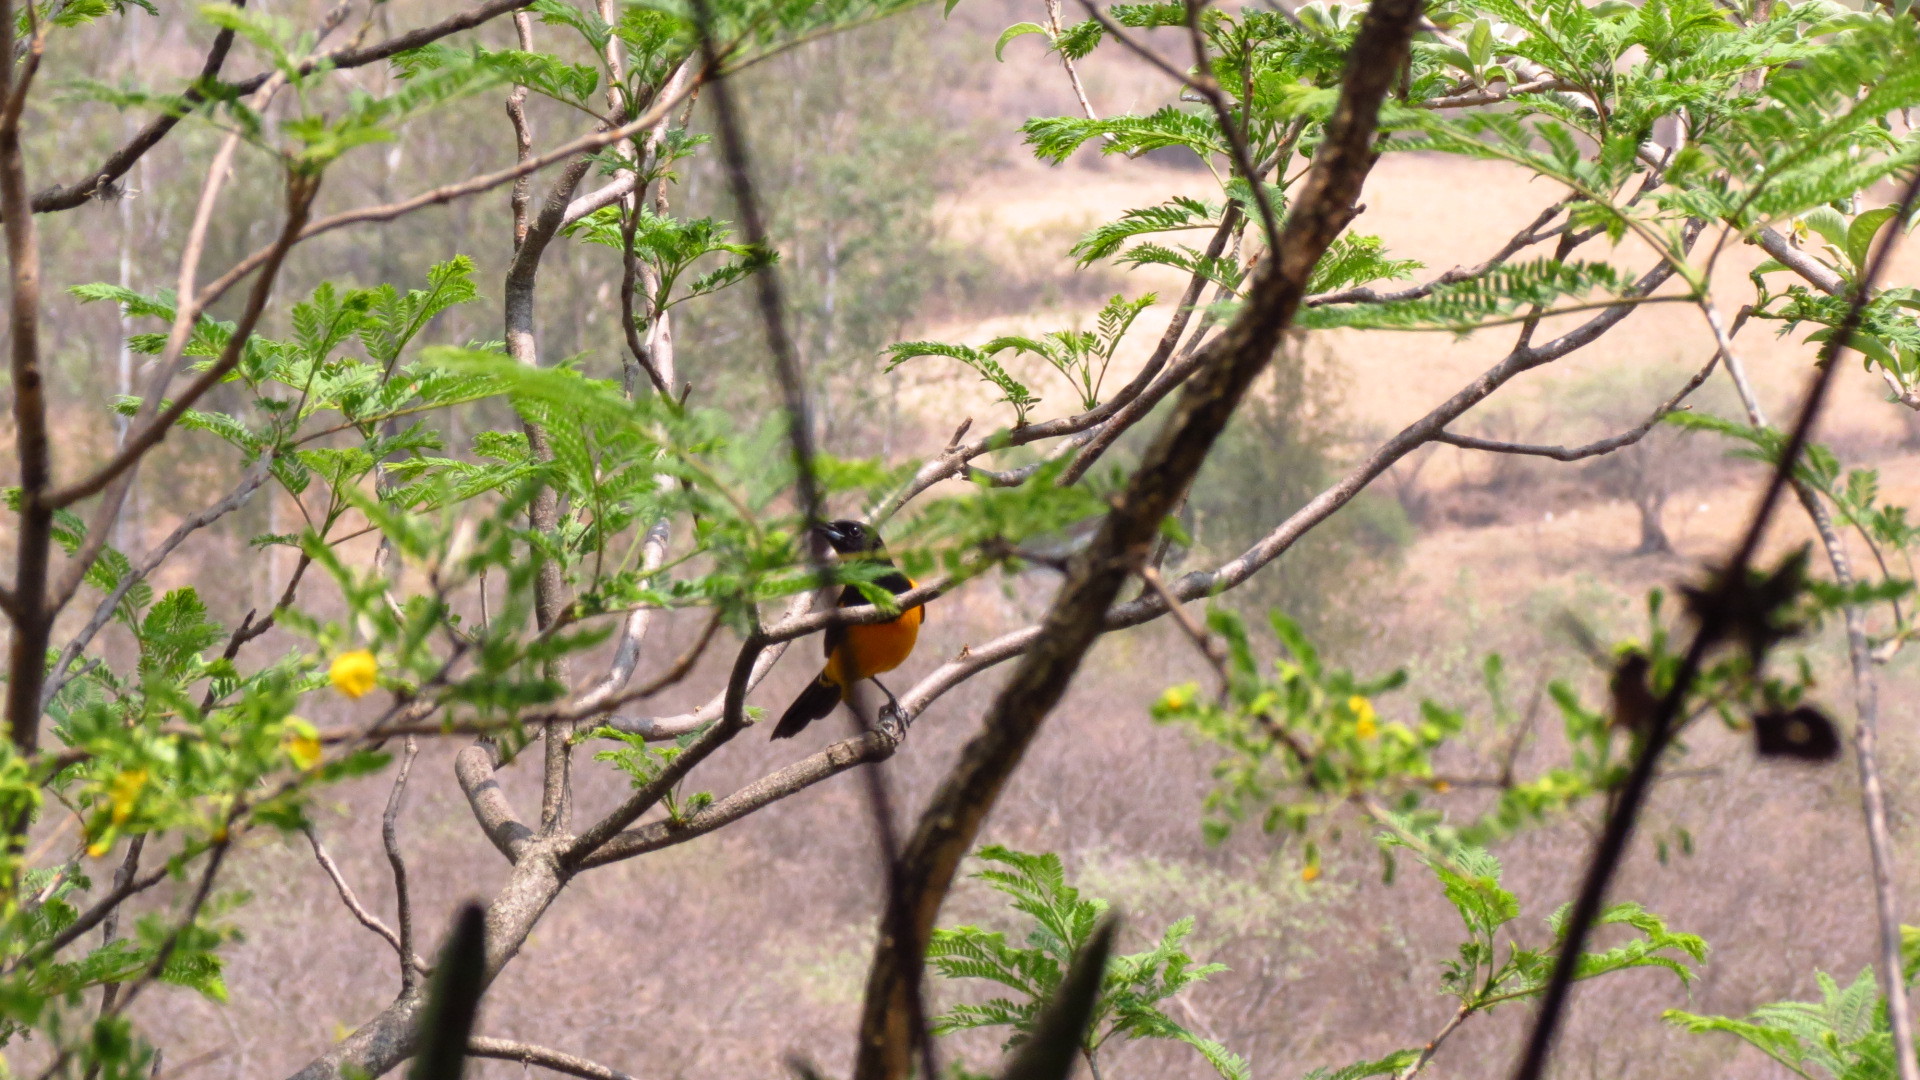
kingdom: Animalia
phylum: Chordata
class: Aves
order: Passeriformes
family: Icteridae
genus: Icterus
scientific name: Icterus wagleri
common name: Black-vented oriole
